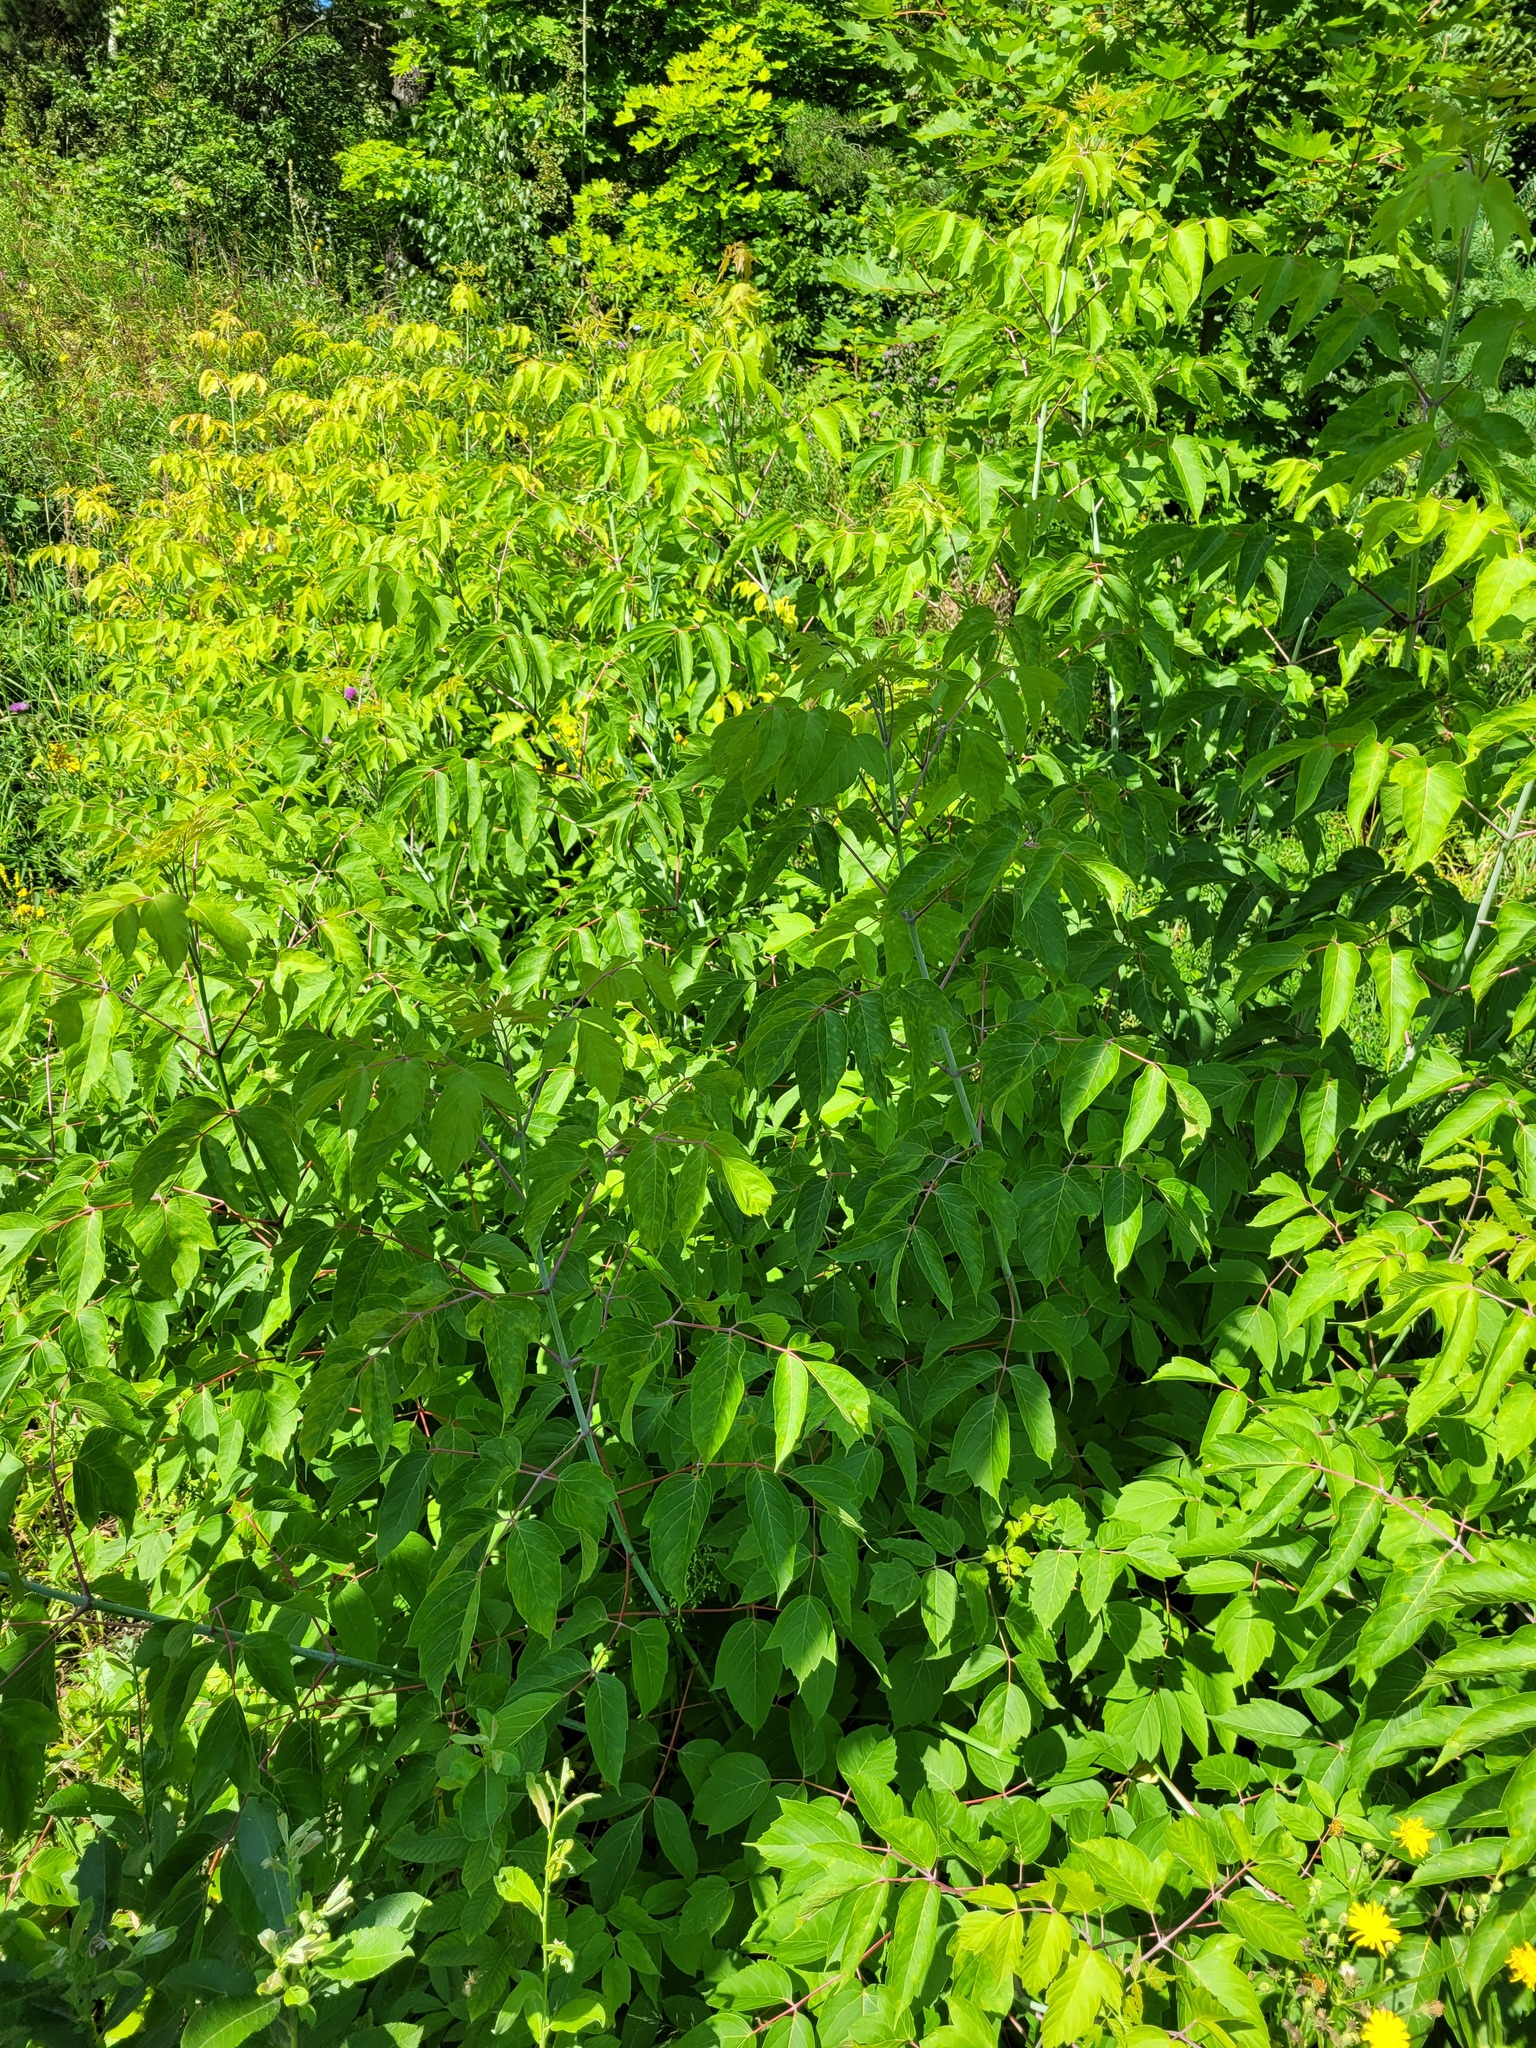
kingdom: Plantae
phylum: Tracheophyta
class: Magnoliopsida
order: Sapindales
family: Sapindaceae
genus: Acer
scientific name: Acer negundo
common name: Ashleaf maple
